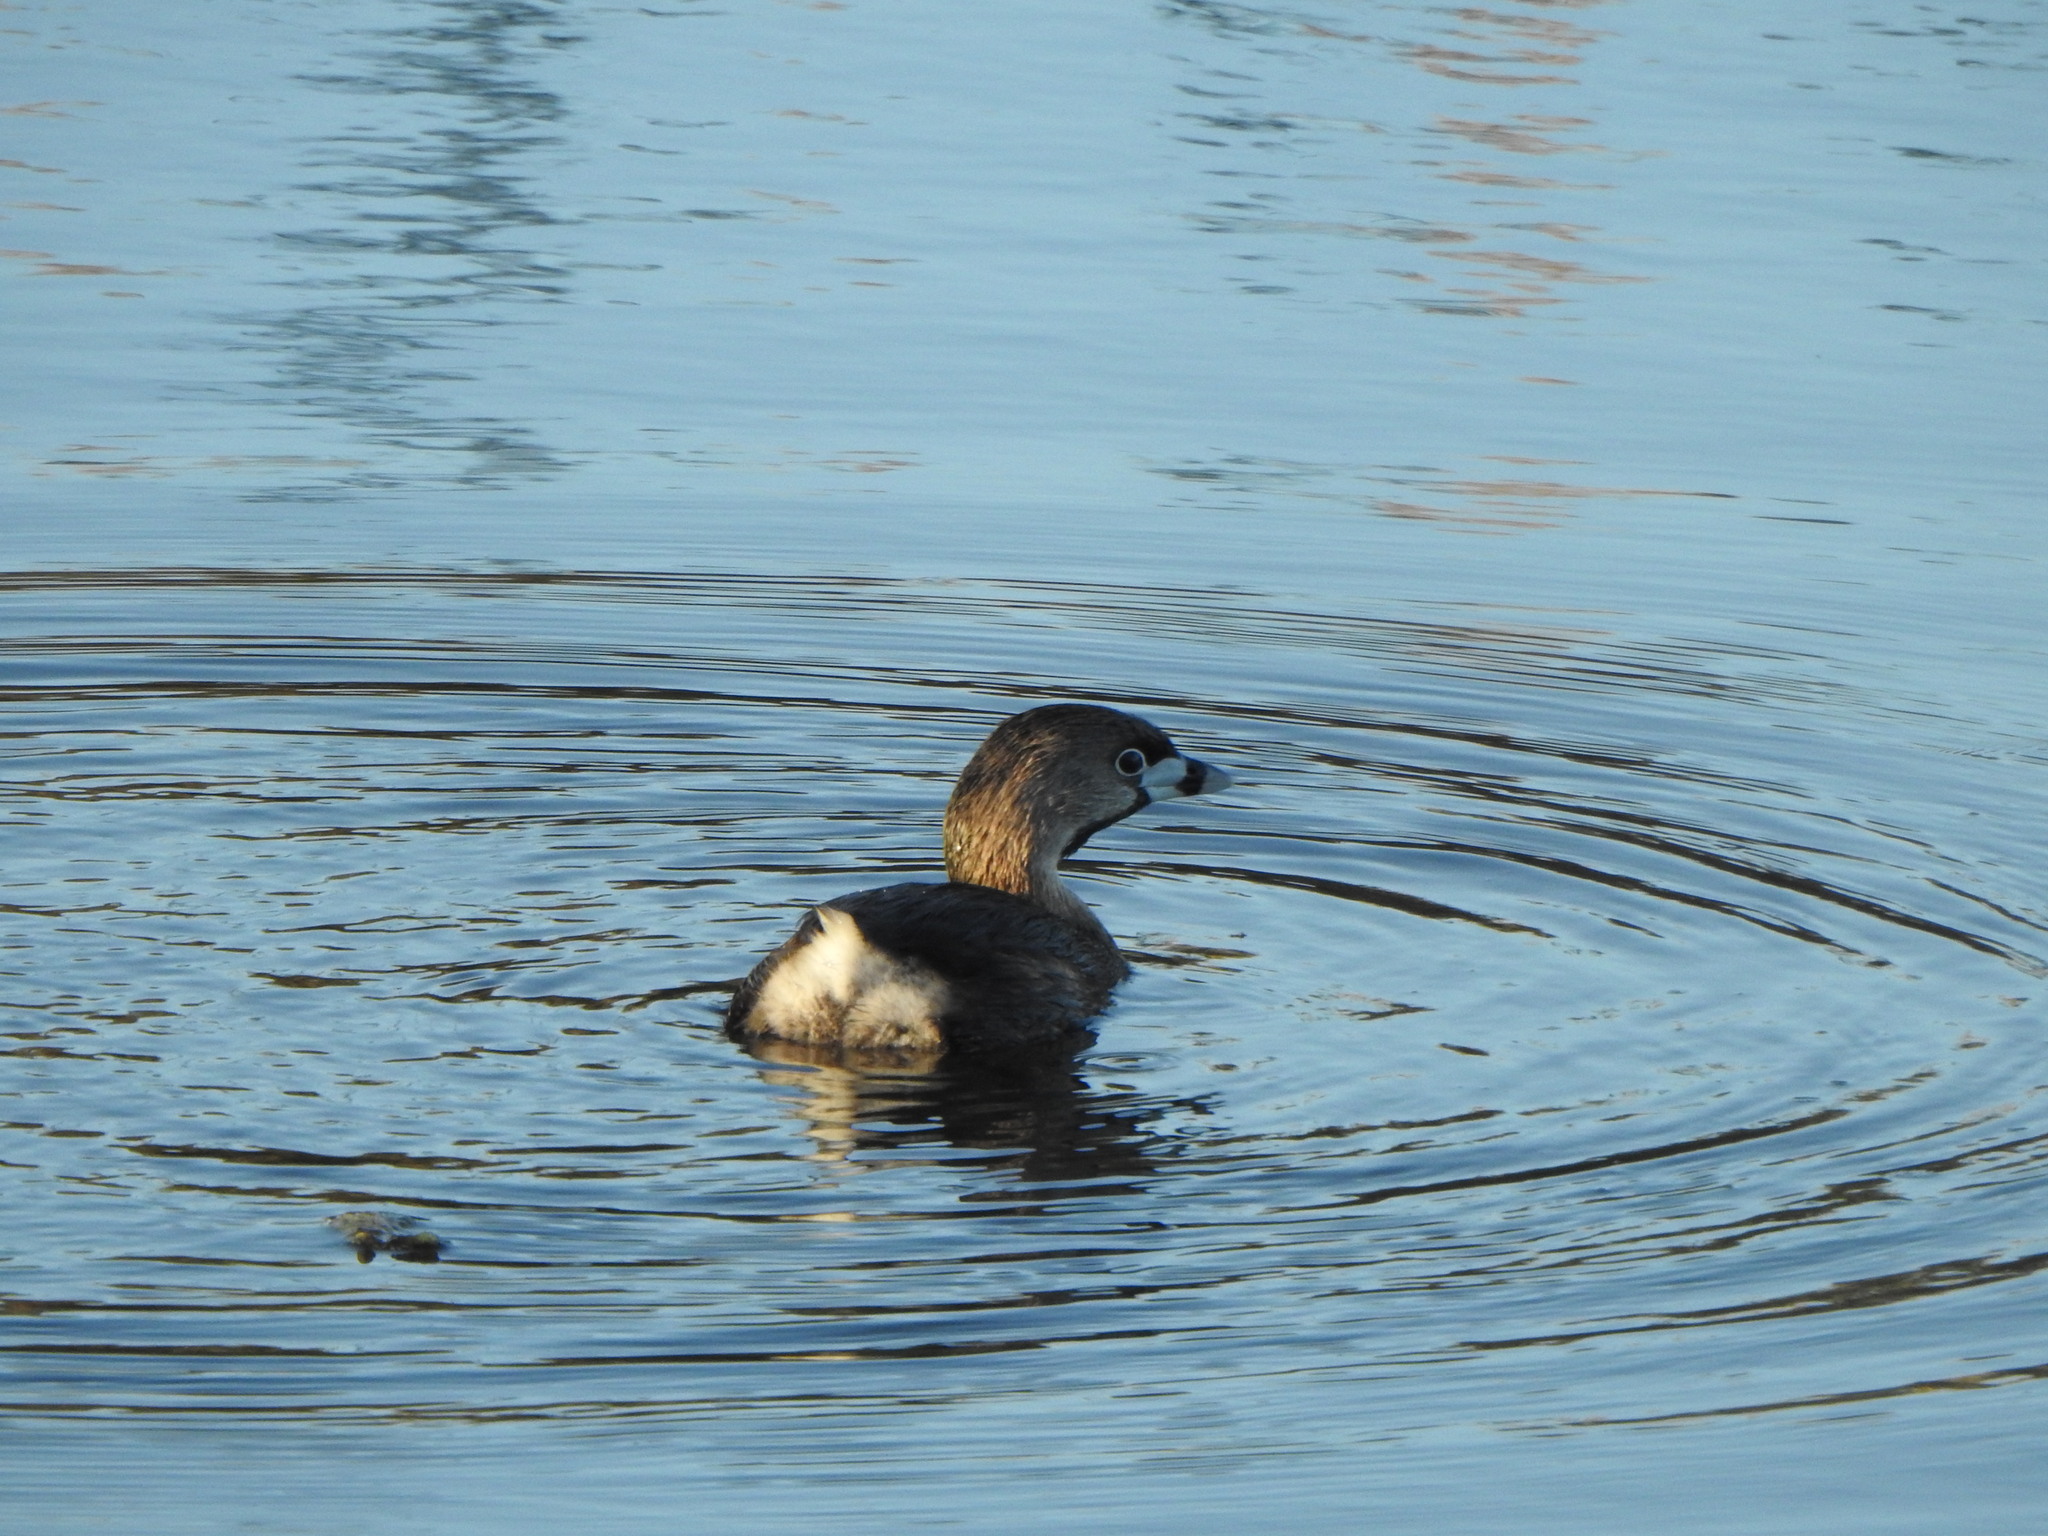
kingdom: Animalia
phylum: Chordata
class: Aves
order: Podicipediformes
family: Podicipedidae
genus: Podilymbus
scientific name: Podilymbus podiceps
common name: Pied-billed grebe
